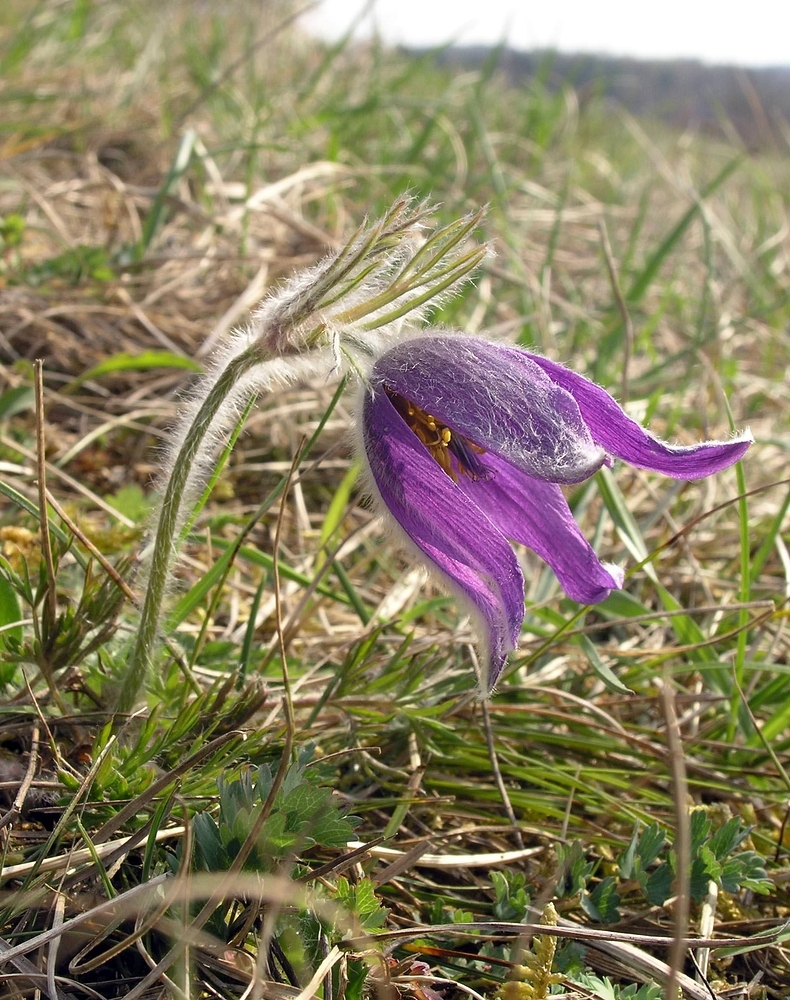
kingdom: Plantae
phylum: Tracheophyta
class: Magnoliopsida
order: Ranunculales
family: Ranunculaceae
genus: Pulsatilla
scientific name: Pulsatilla vulgaris
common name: Pasqueflower
